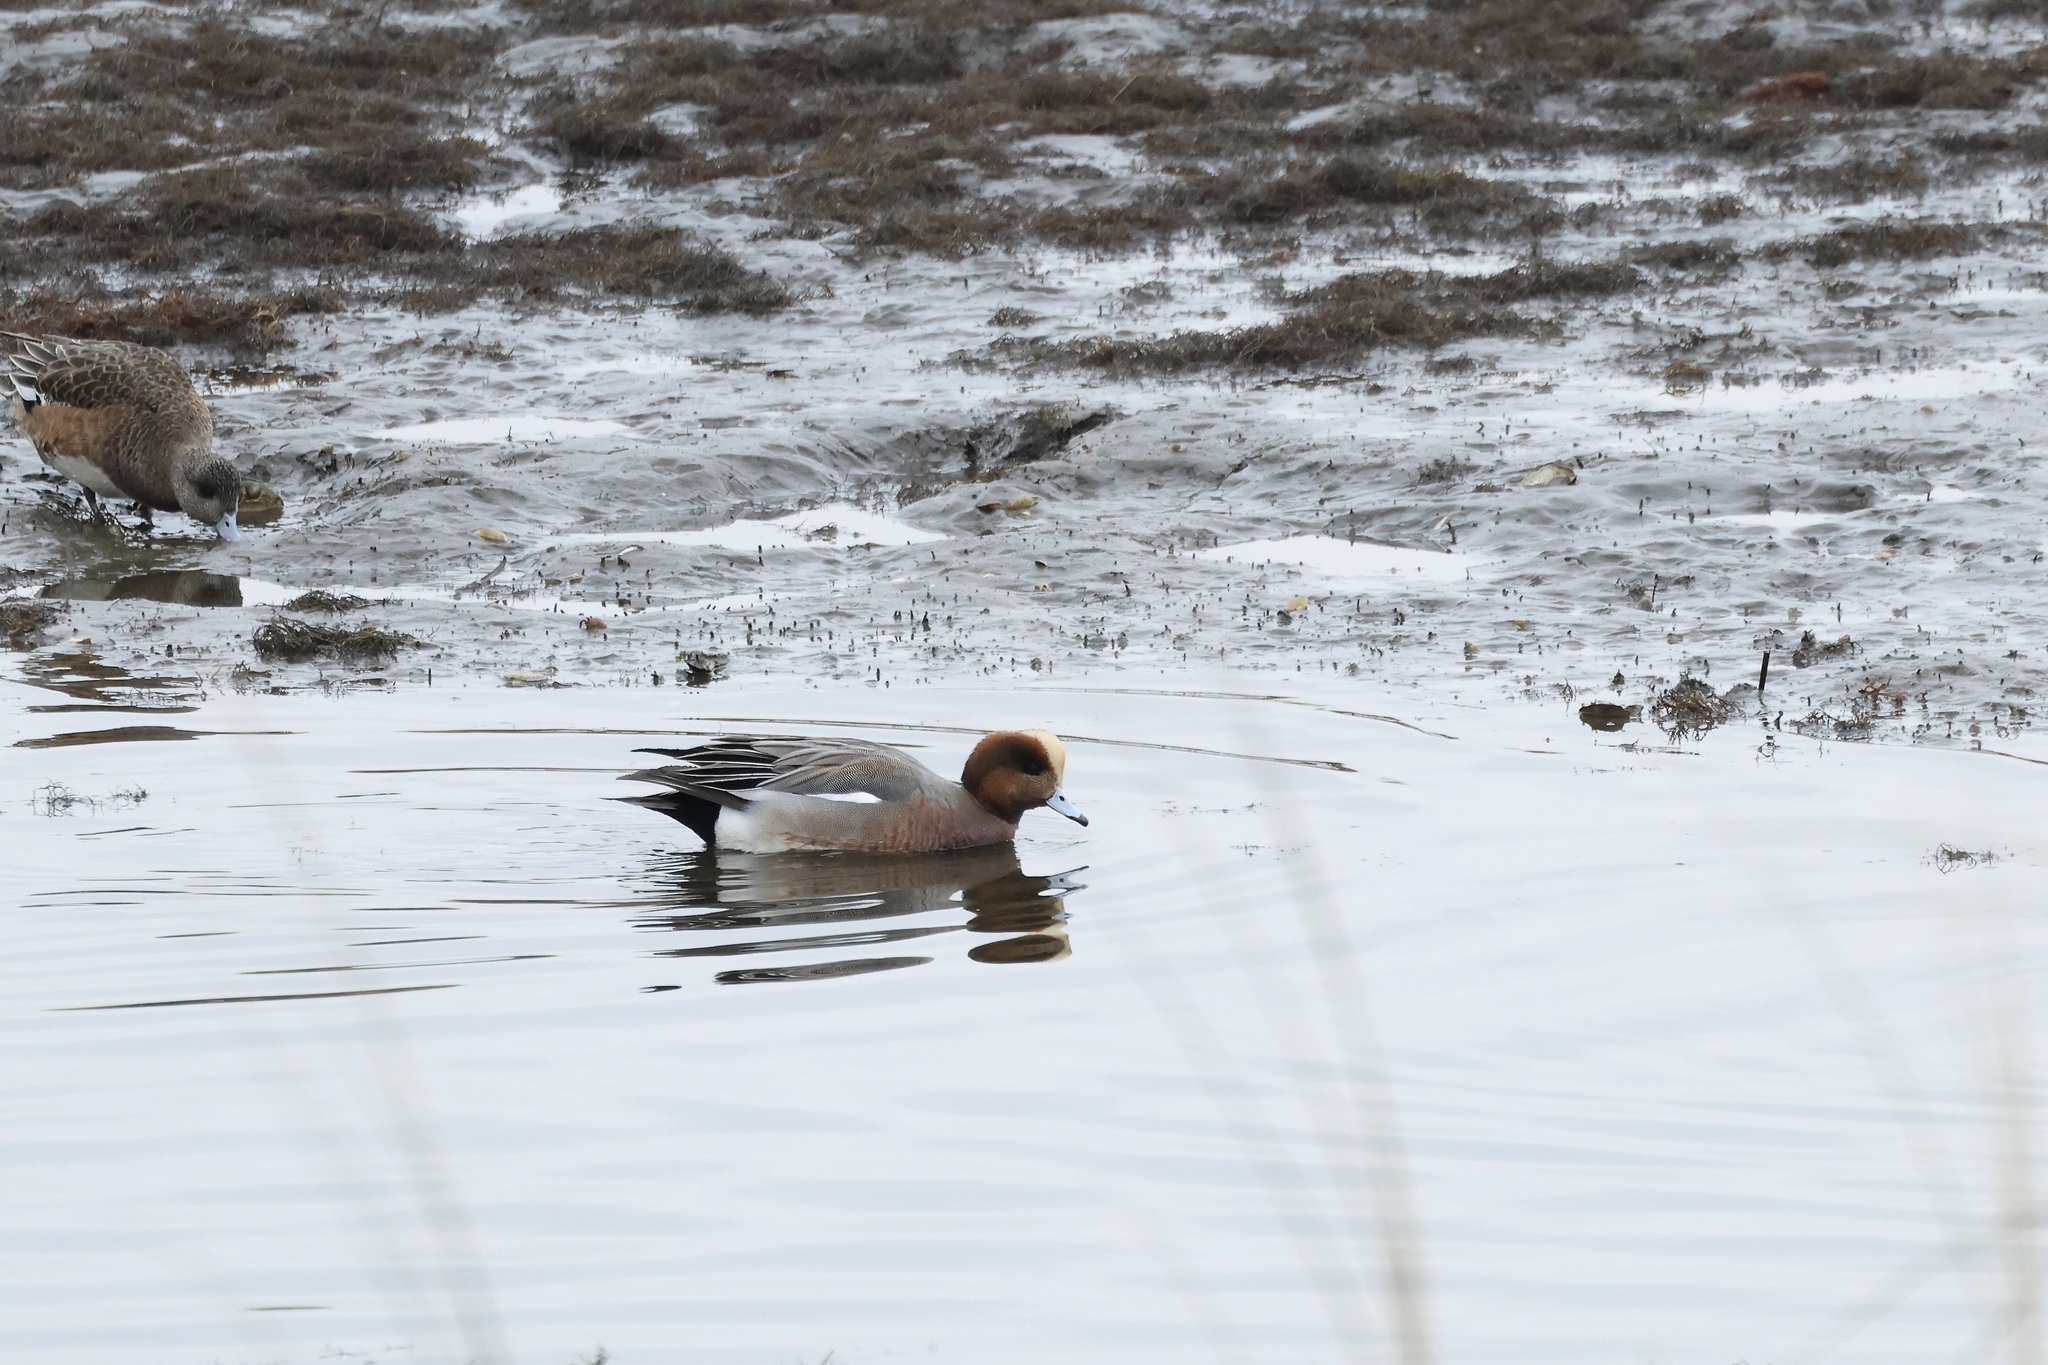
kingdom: Animalia
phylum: Chordata
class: Aves
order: Anseriformes
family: Anatidae
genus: Mareca
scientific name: Mareca
